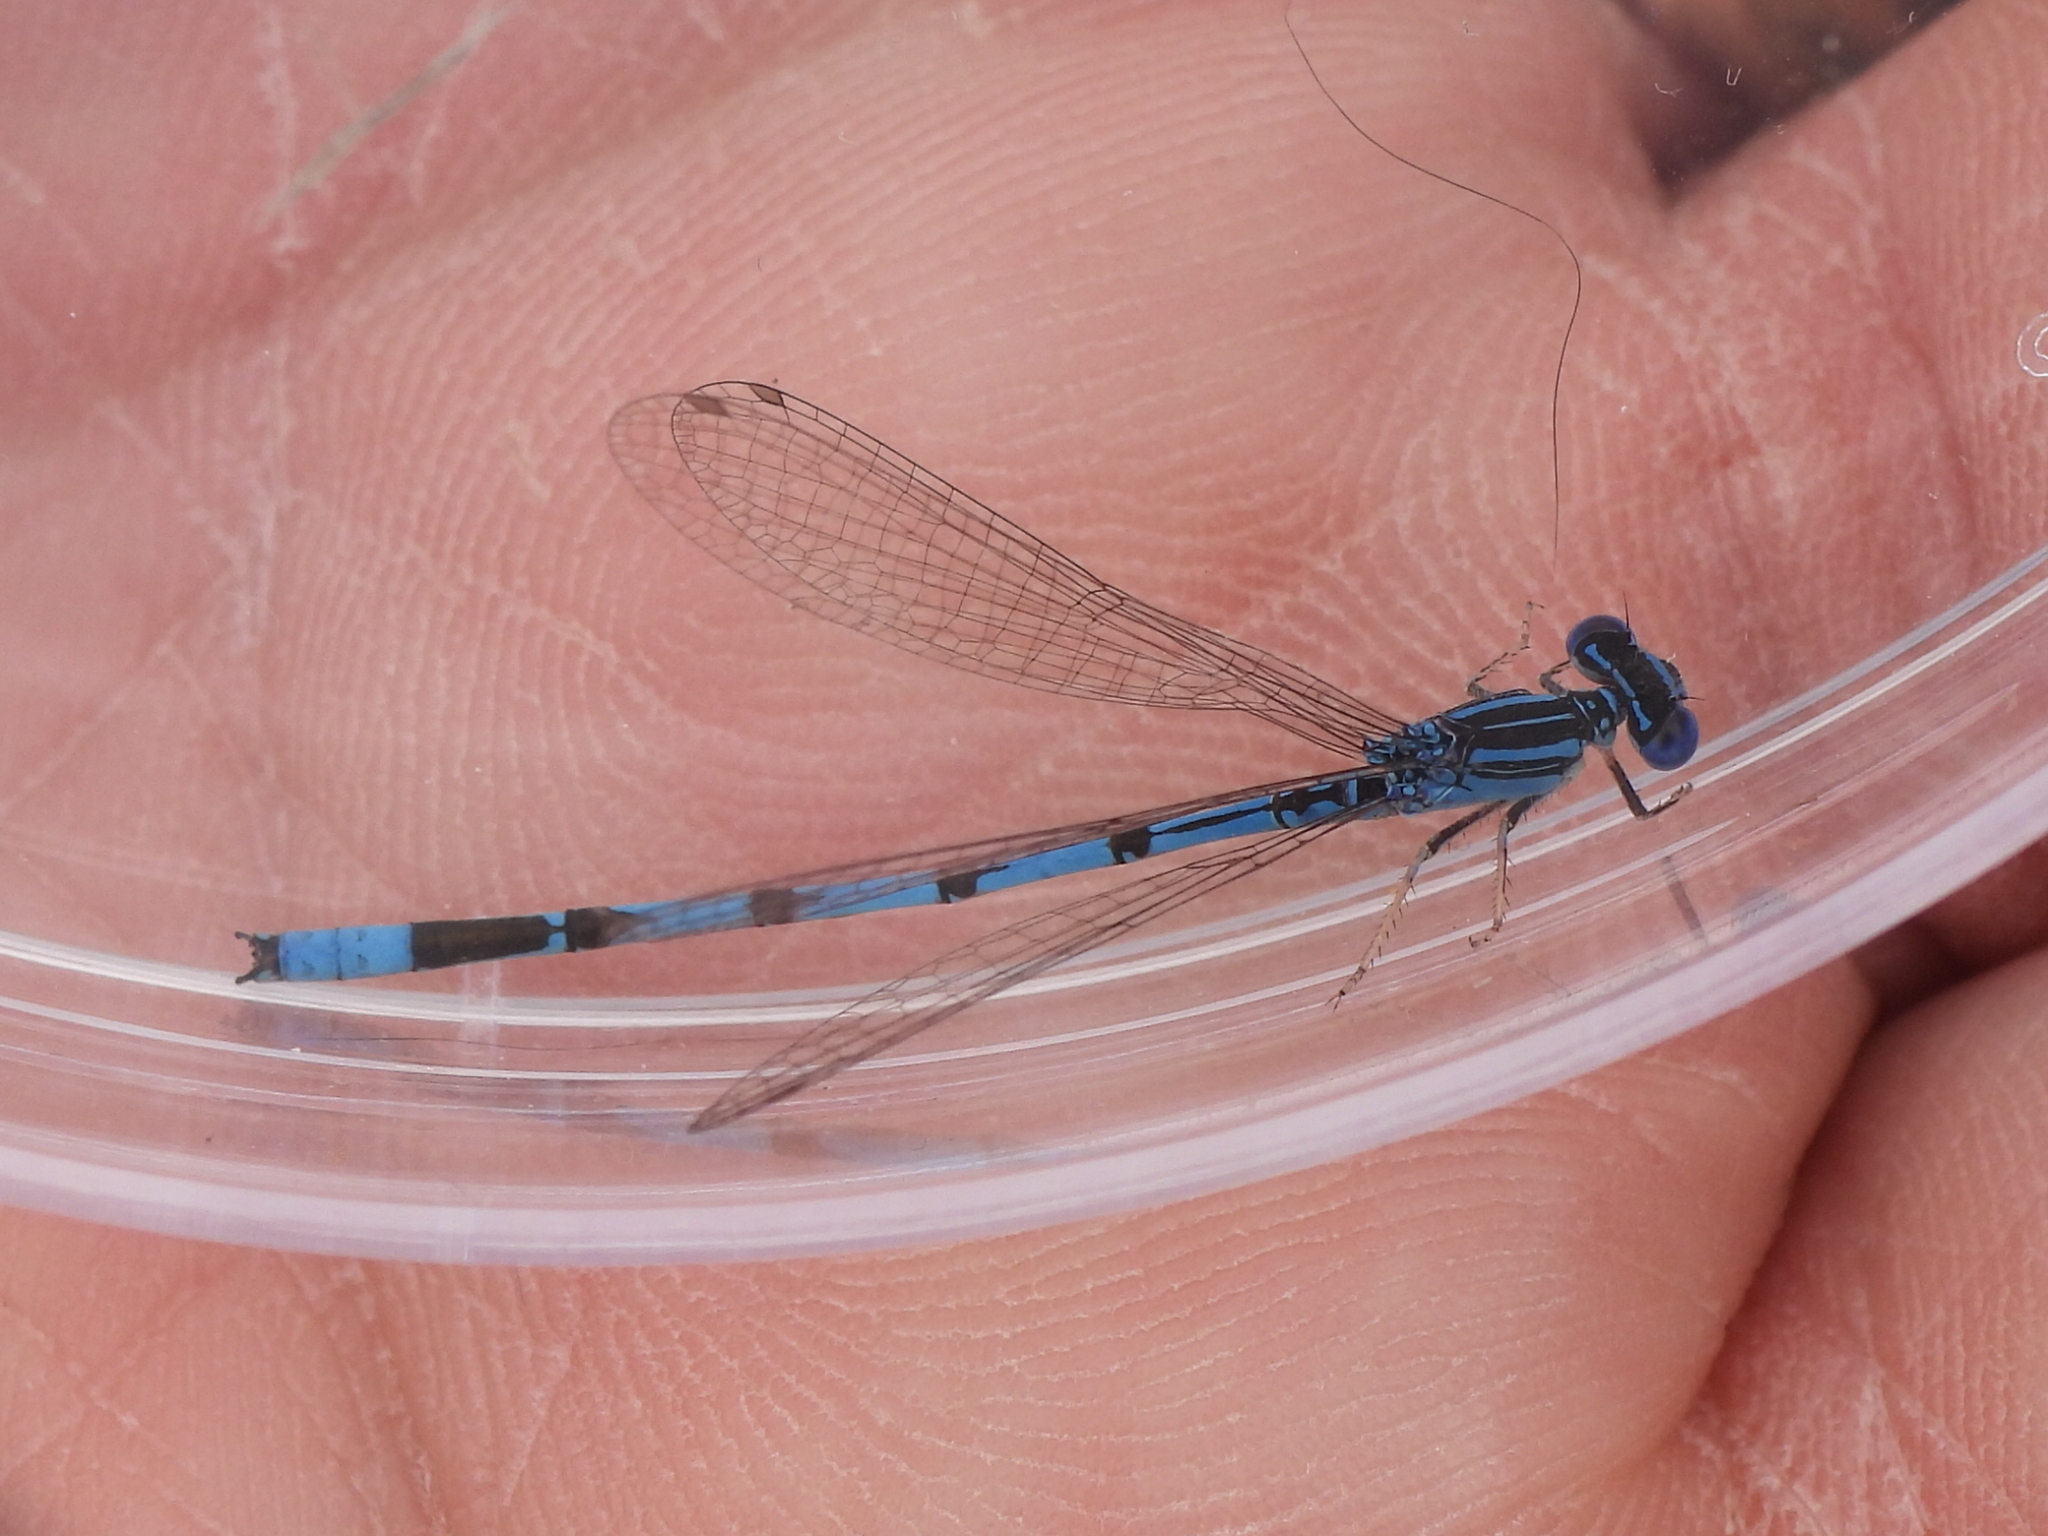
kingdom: Animalia
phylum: Arthropoda
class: Insecta
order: Odonata
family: Coenagrionidae
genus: Enallagma
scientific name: Enallagma basidens
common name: Double-striped bluet
